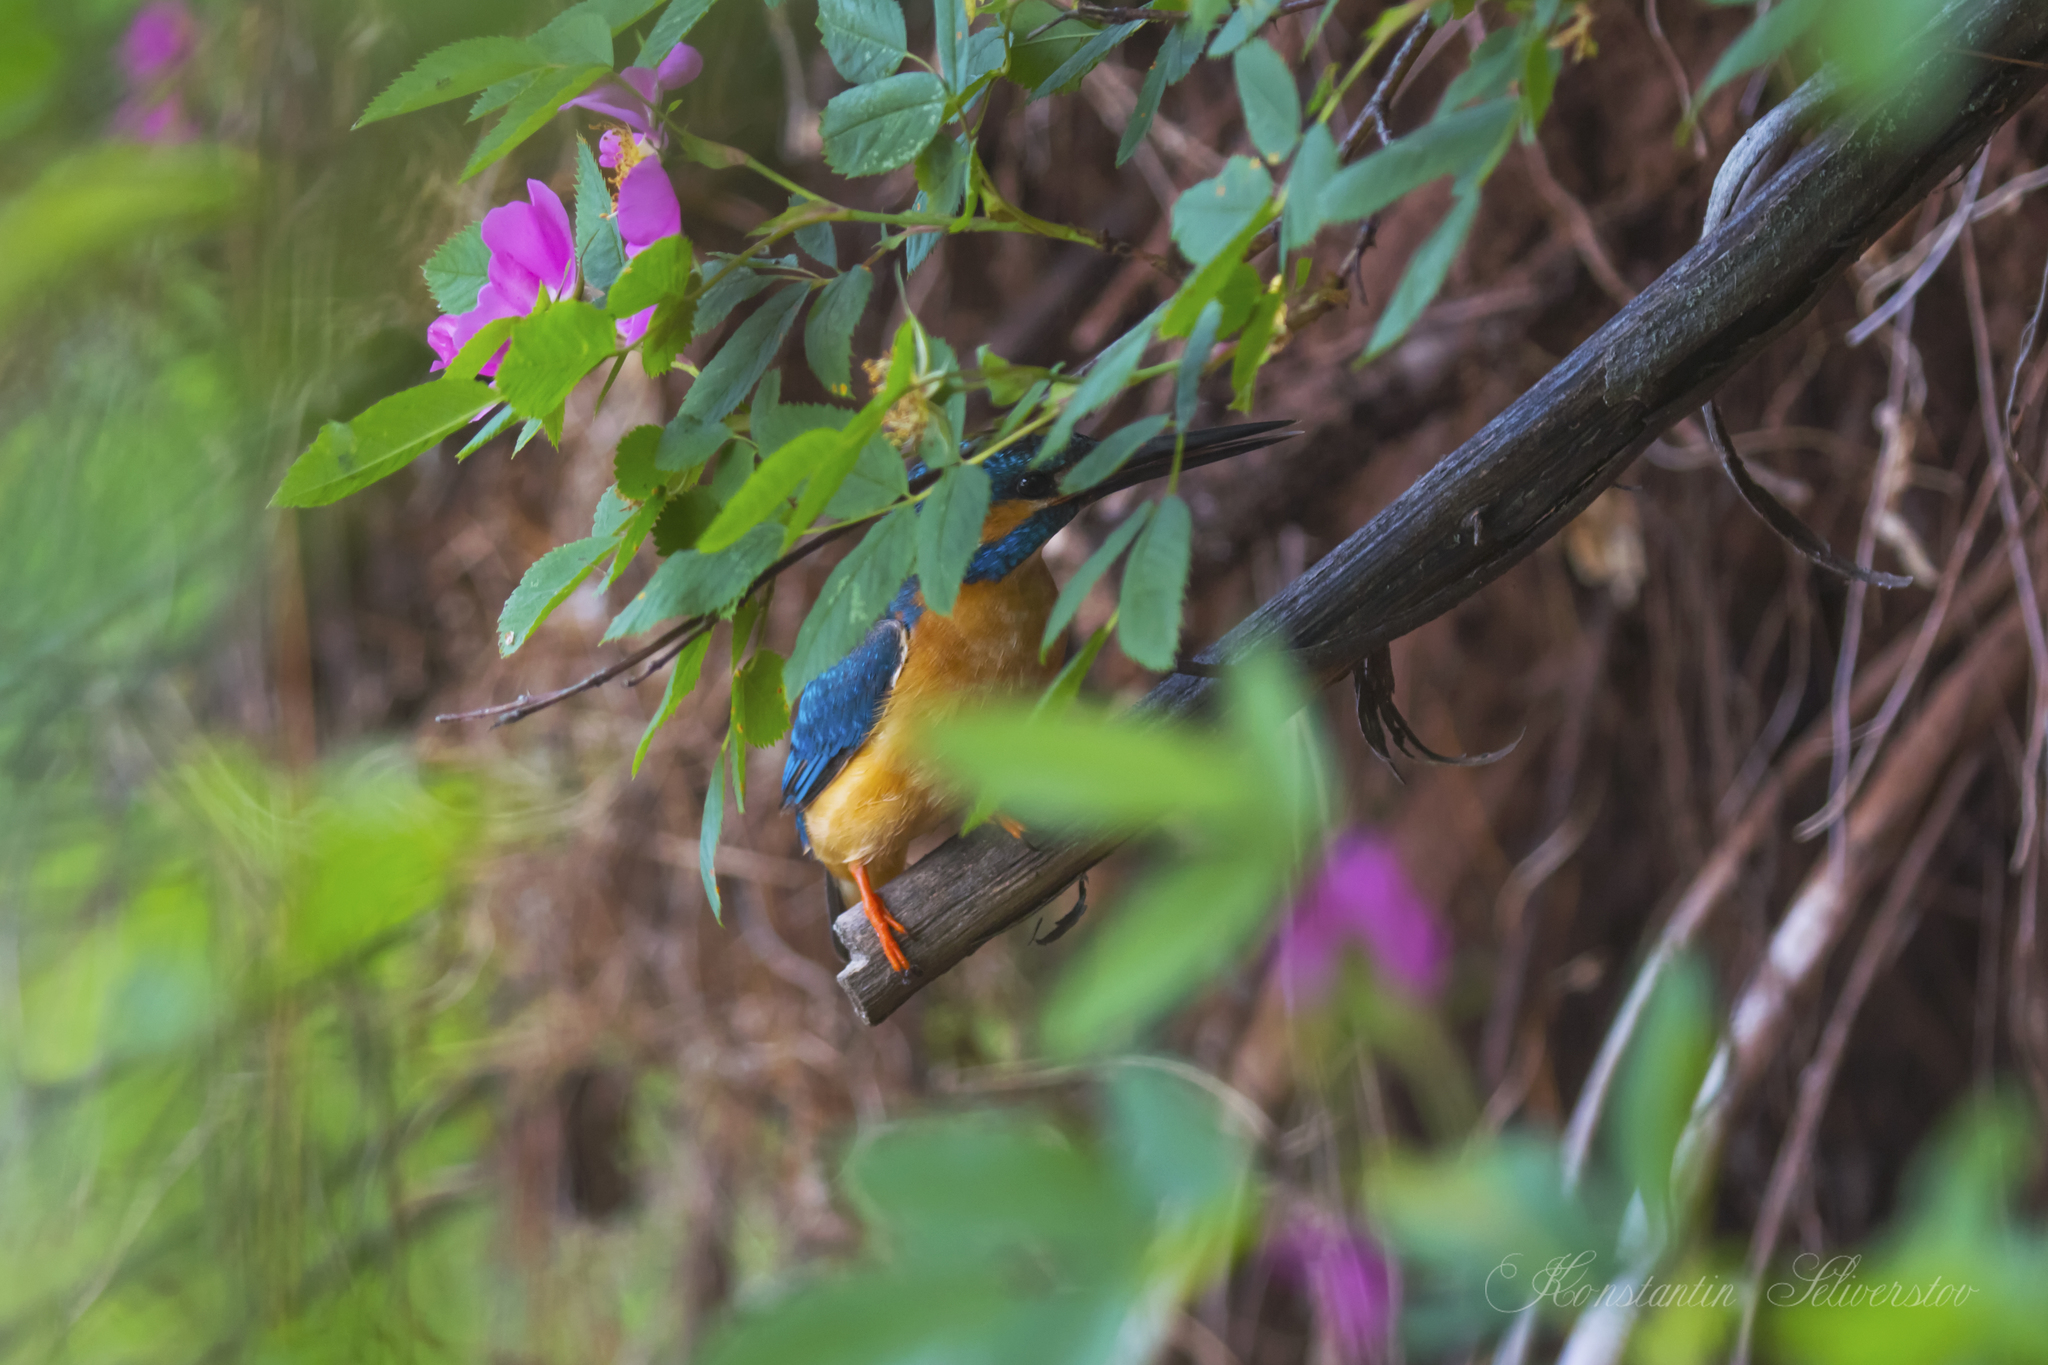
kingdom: Animalia
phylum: Chordata
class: Aves
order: Coraciiformes
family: Alcedinidae
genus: Alcedo
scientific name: Alcedo atthis
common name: Common kingfisher
